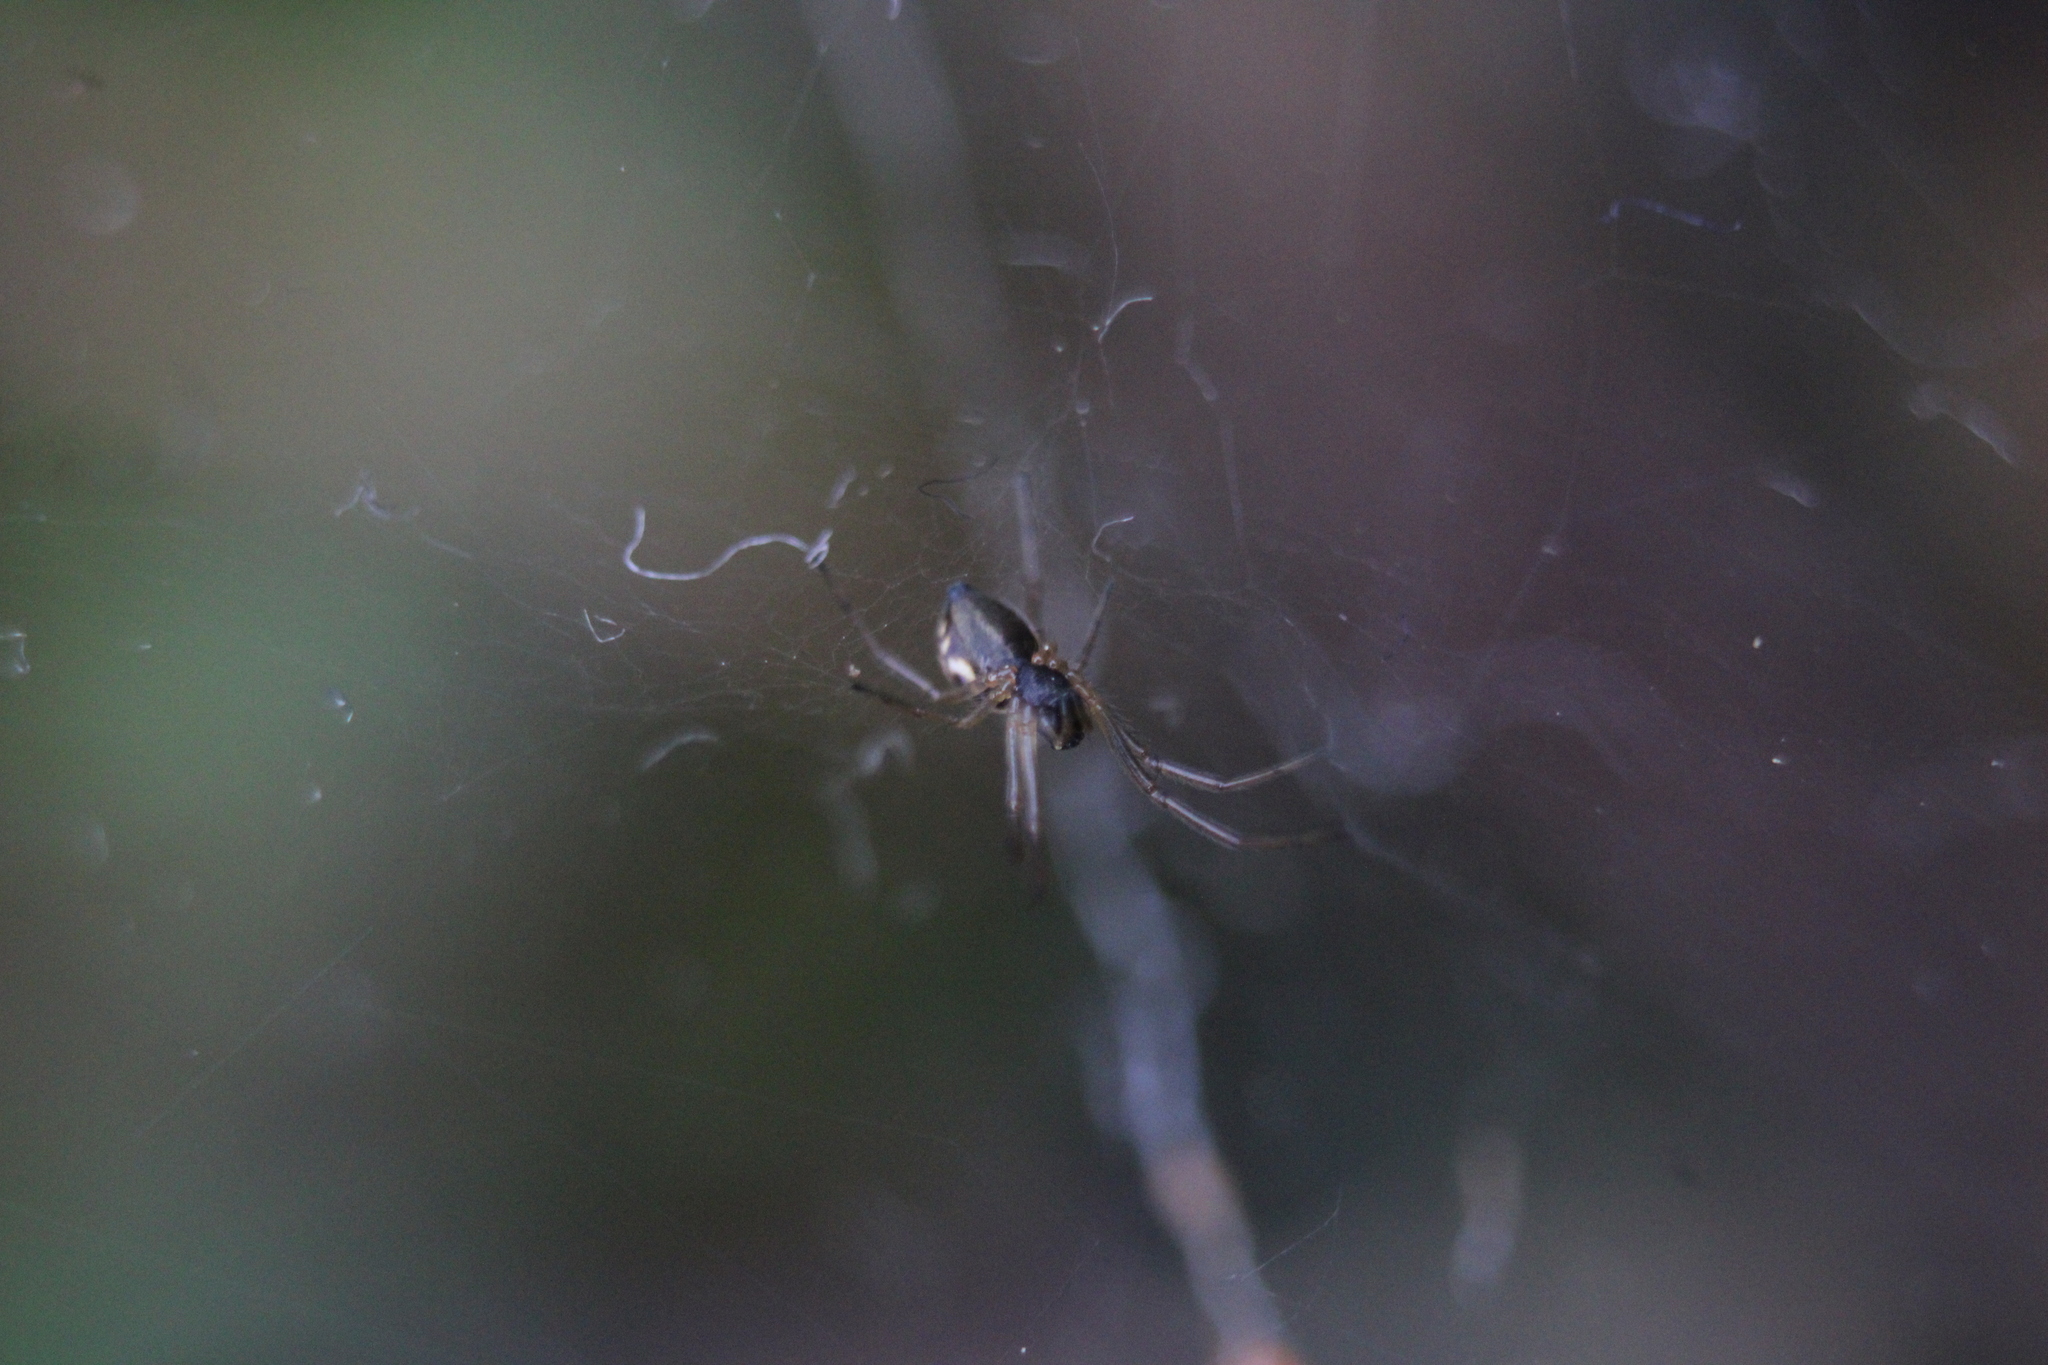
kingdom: Animalia
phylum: Arthropoda
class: Arachnida
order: Araneae
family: Linyphiidae
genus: Frontinella
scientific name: Frontinella pyramitela
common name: Bowl-and-doily spider
